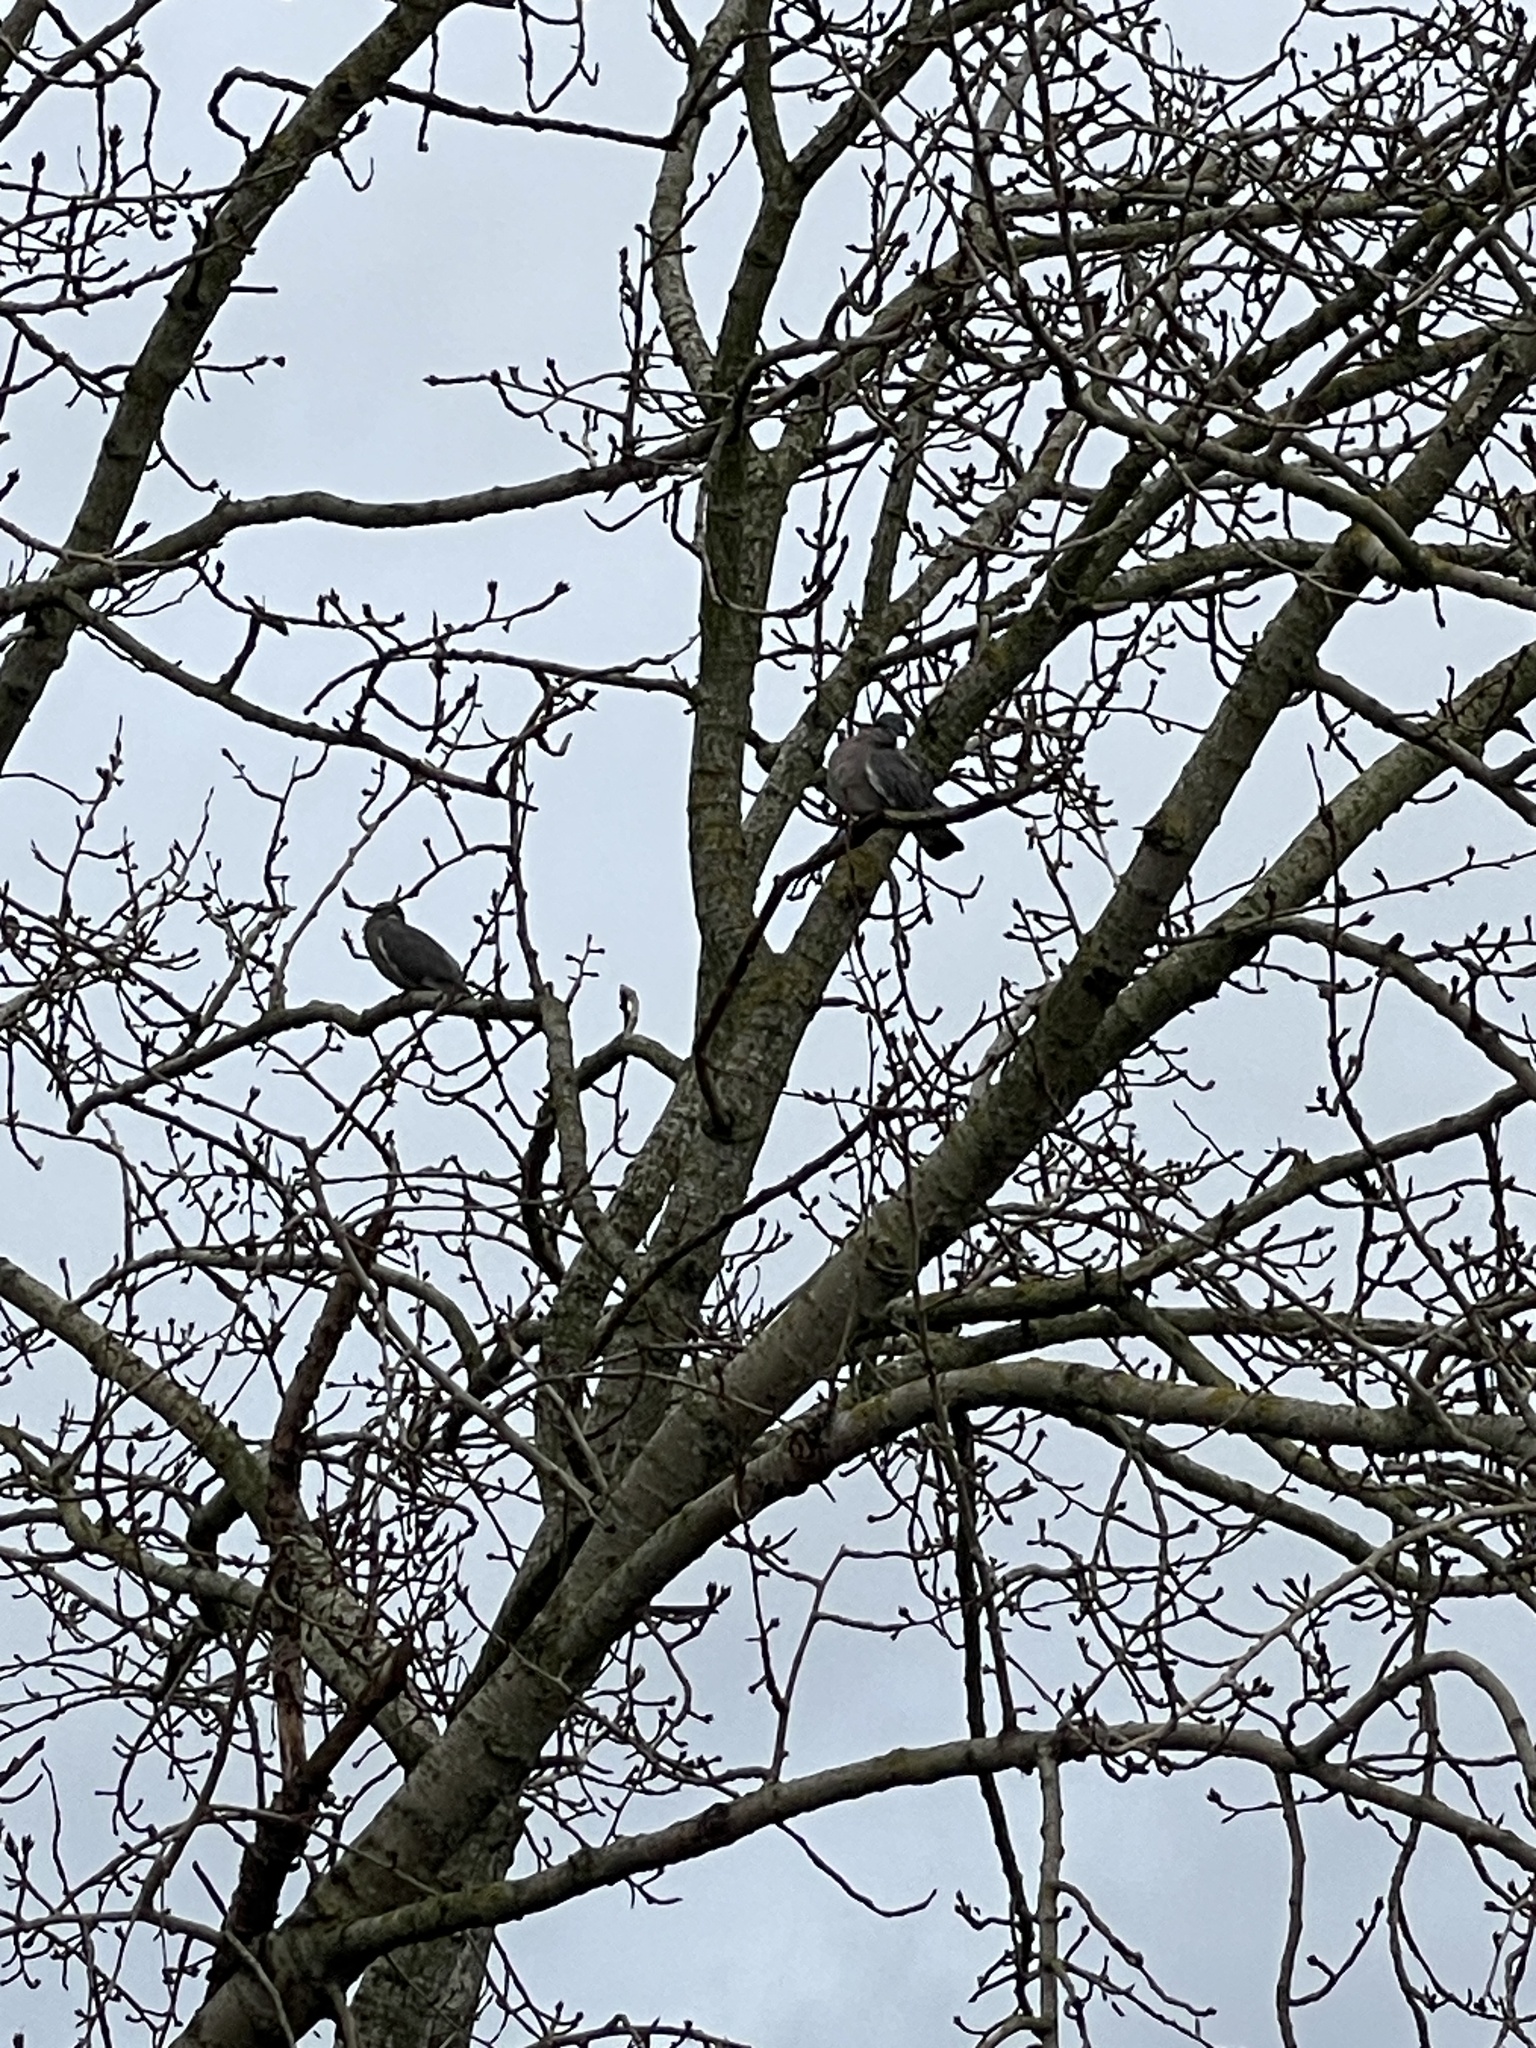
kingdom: Animalia
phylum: Chordata
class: Aves
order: Columbiformes
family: Columbidae
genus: Columba
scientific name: Columba palumbus
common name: Common wood pigeon
